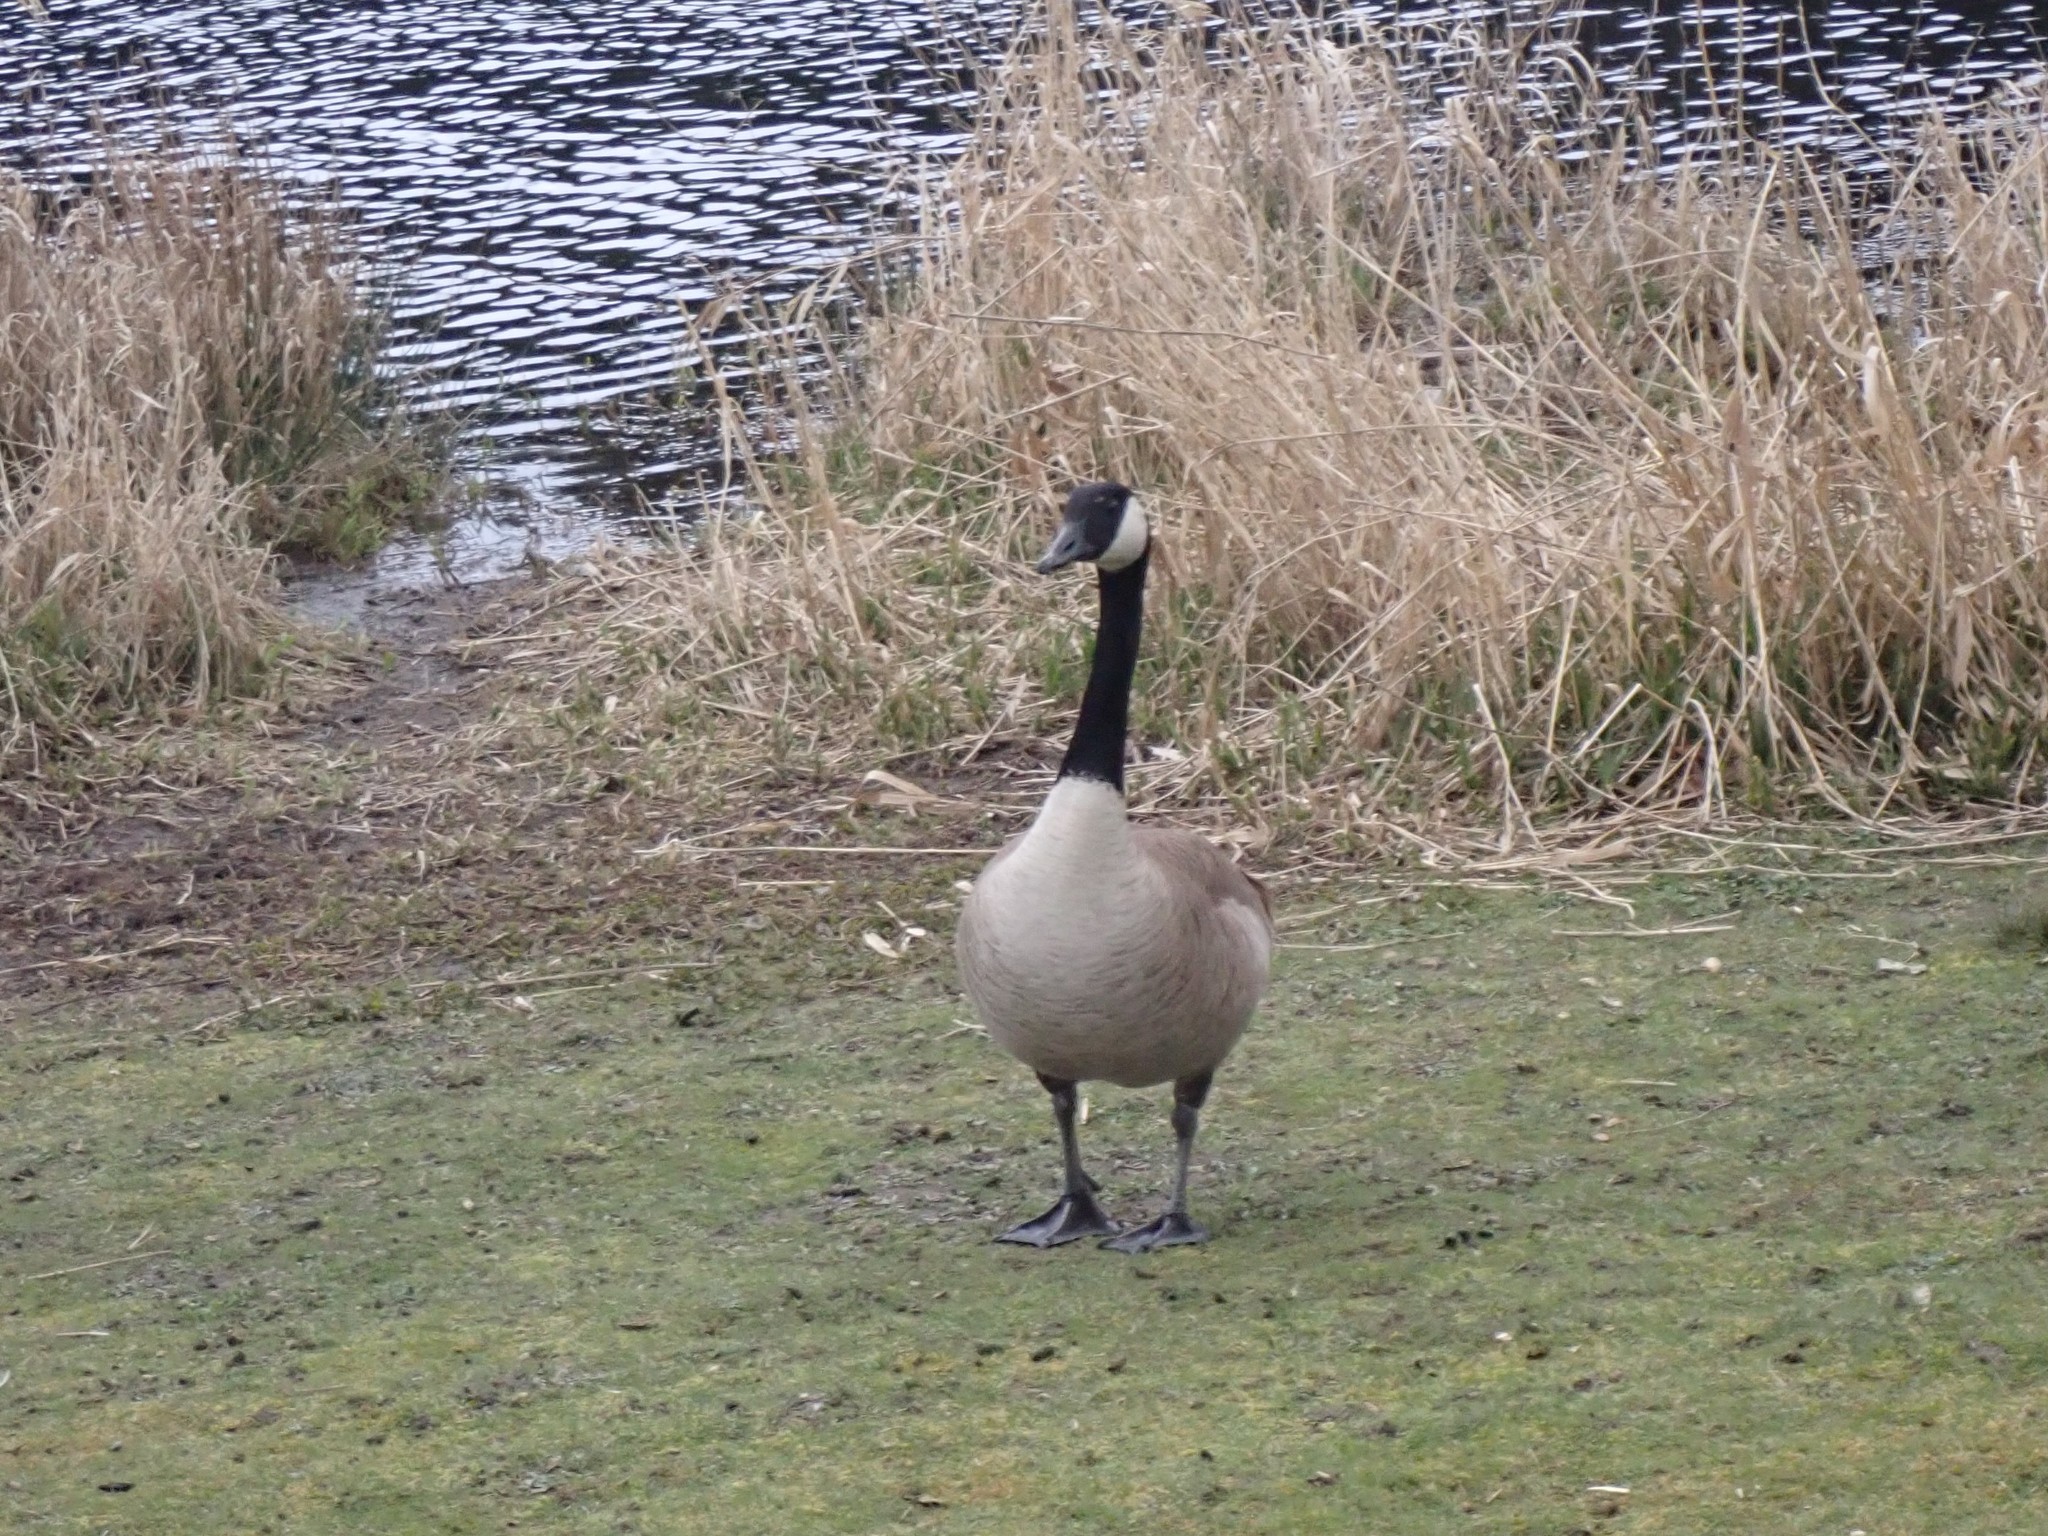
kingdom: Animalia
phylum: Chordata
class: Aves
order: Anseriformes
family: Anatidae
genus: Branta
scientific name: Branta canadensis
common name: Canada goose
